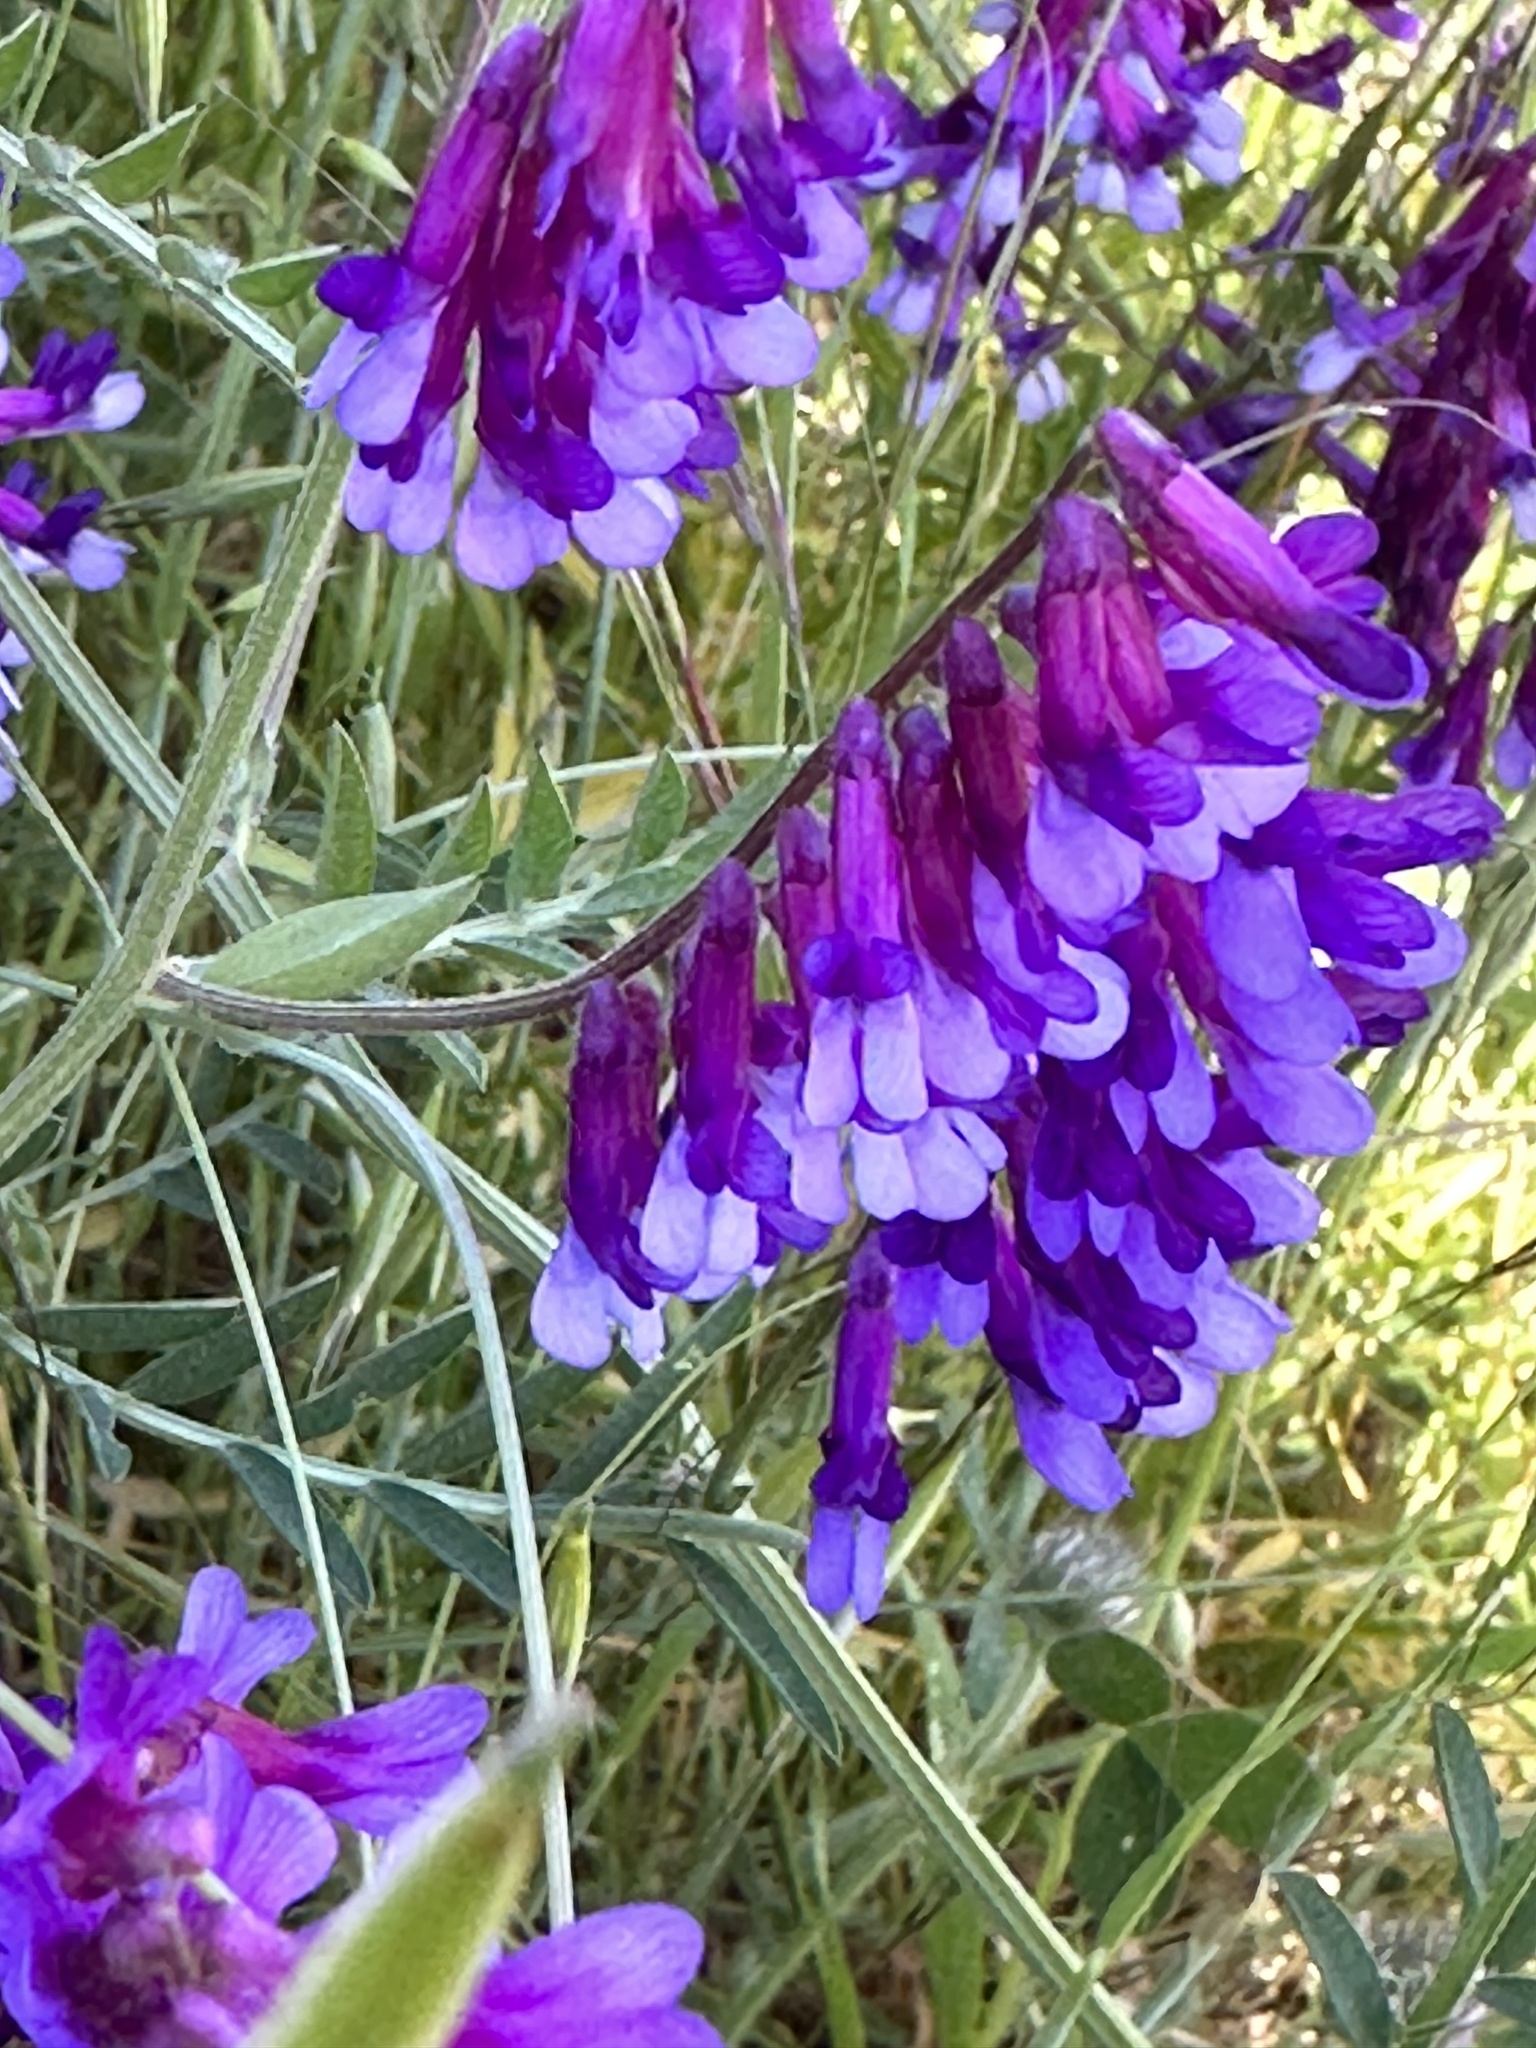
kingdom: Plantae
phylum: Tracheophyta
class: Magnoliopsida
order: Fabales
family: Fabaceae
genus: Vicia
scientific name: Vicia villosa
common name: Fodder vetch
